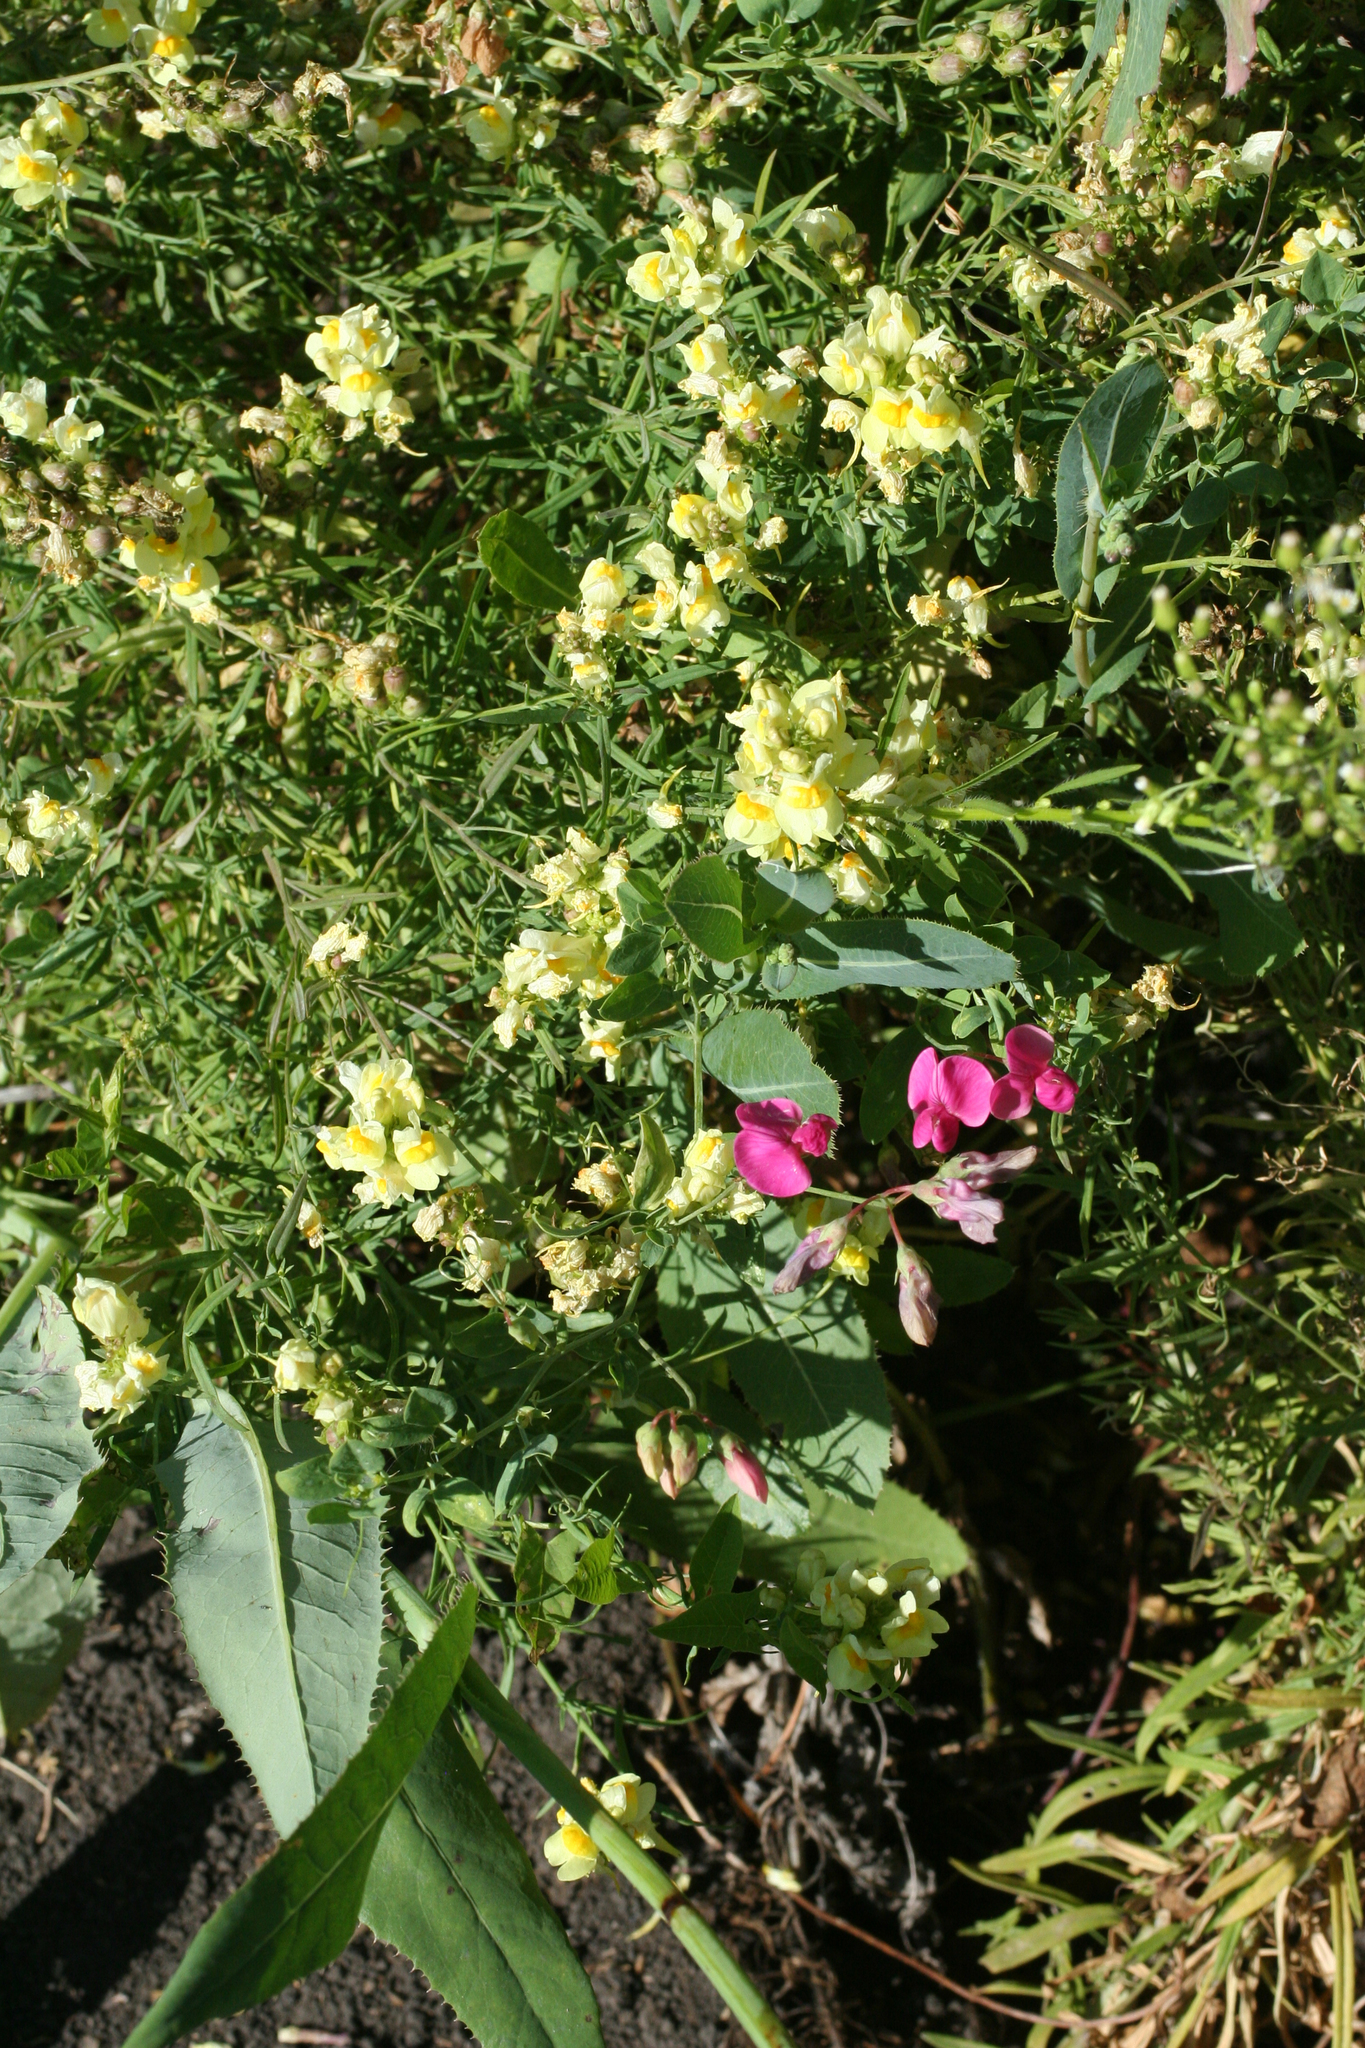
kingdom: Plantae
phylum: Tracheophyta
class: Magnoliopsida
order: Lamiales
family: Plantaginaceae
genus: Linaria
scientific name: Linaria vulgaris
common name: Butter and eggs
